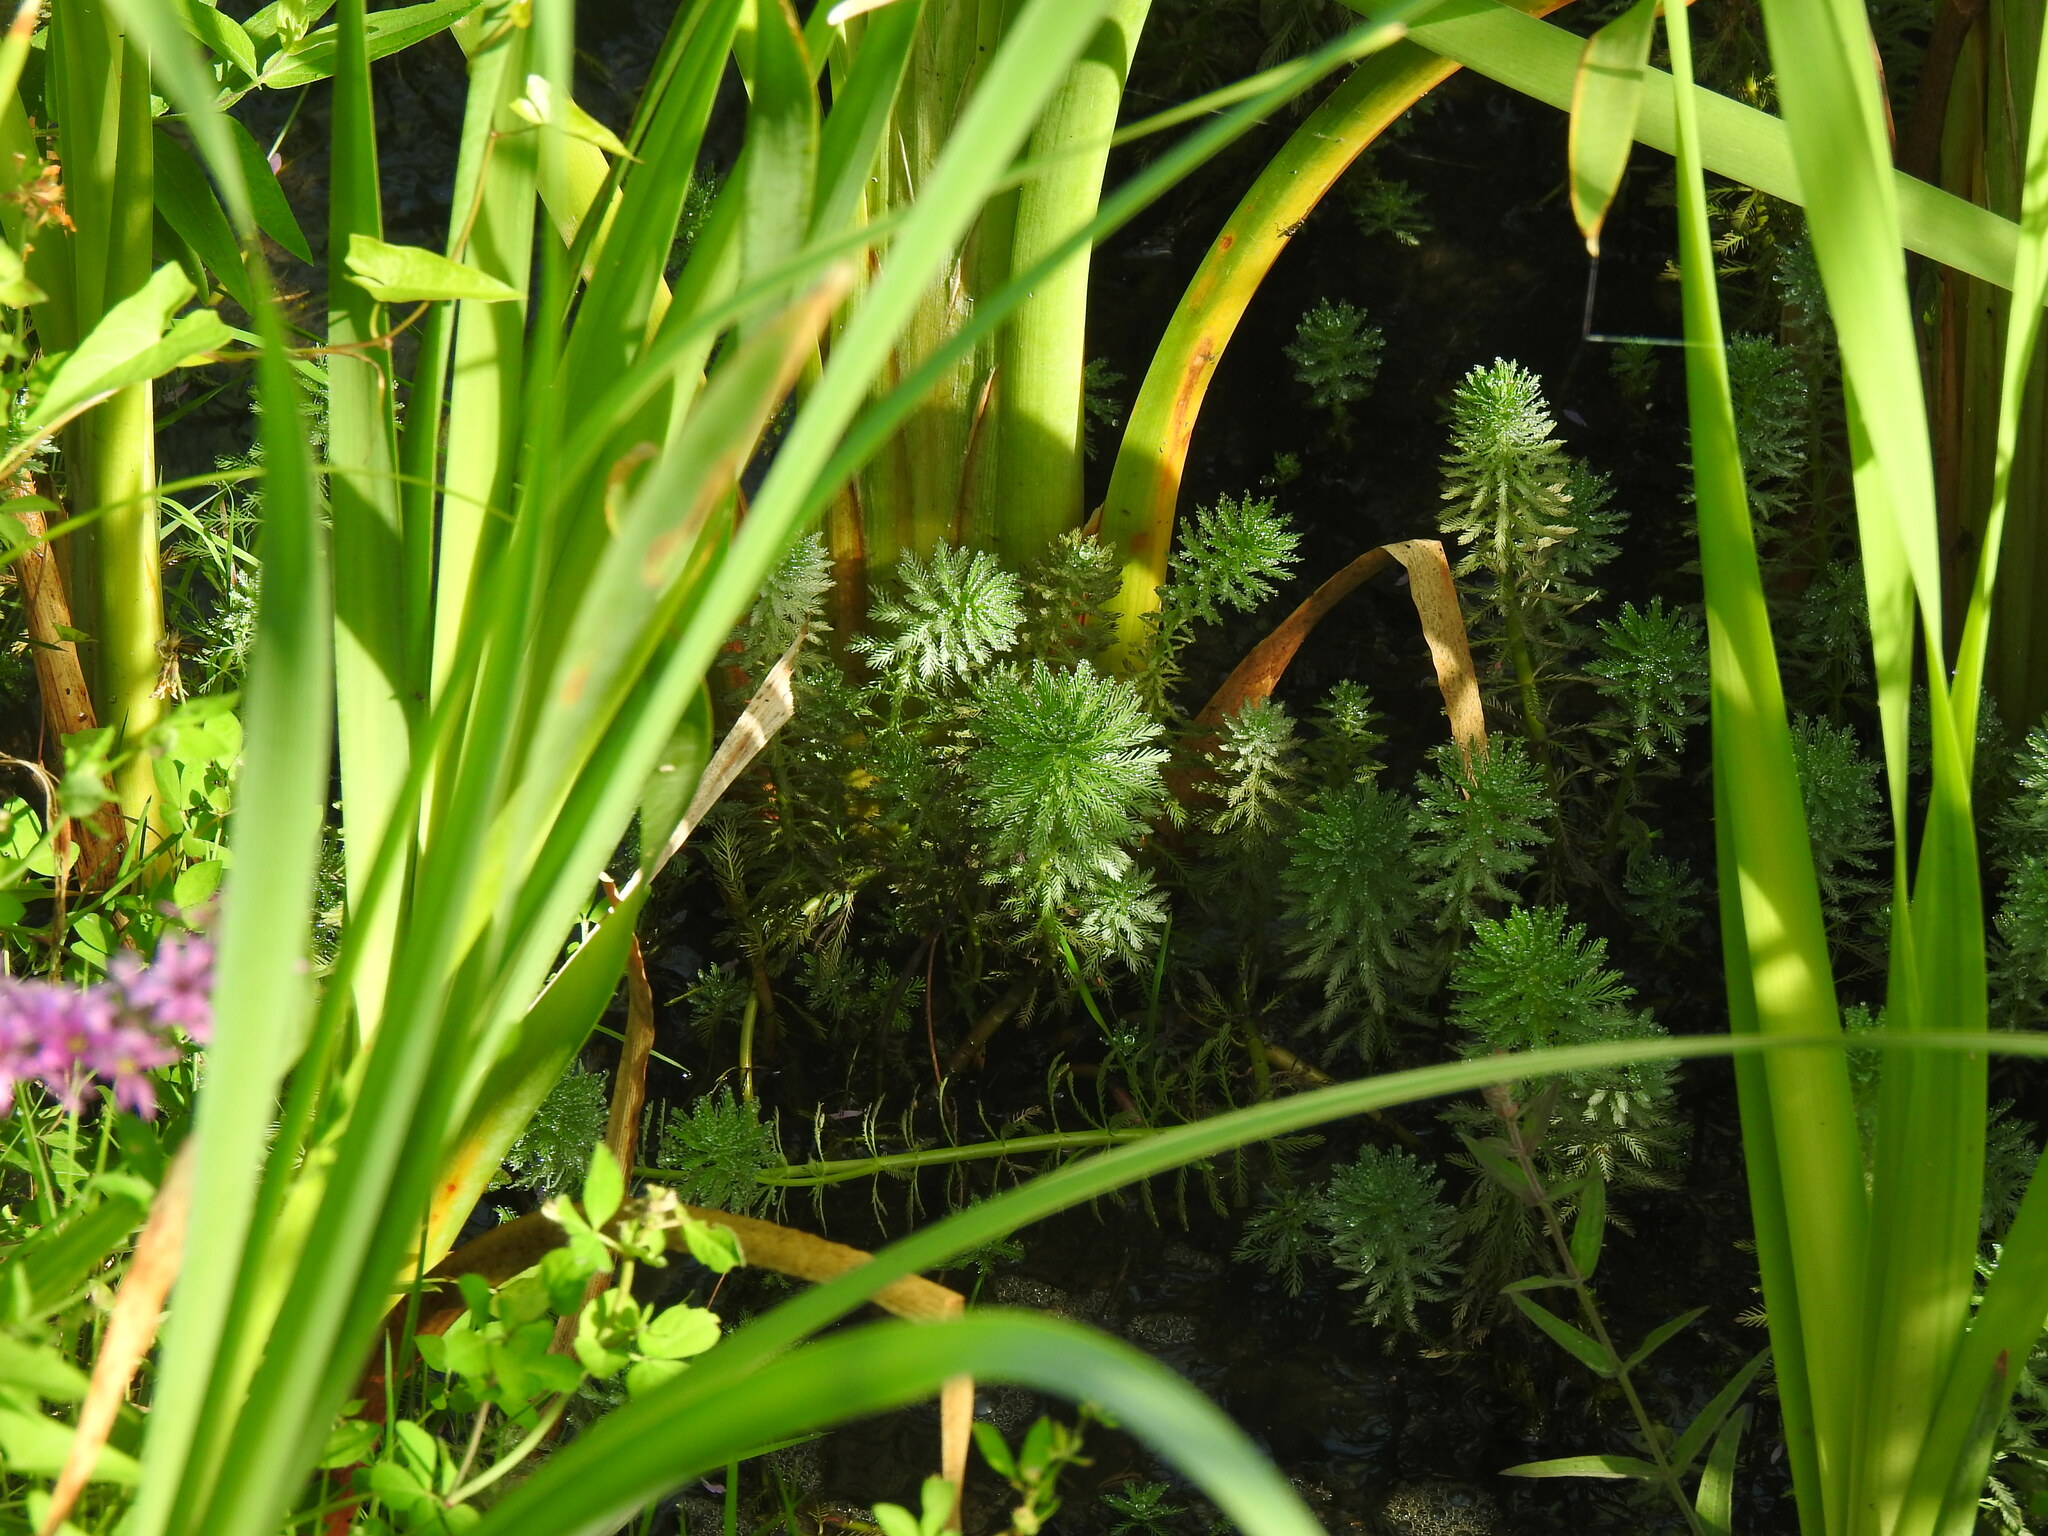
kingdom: Plantae
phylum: Tracheophyta
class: Magnoliopsida
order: Saxifragales
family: Haloragaceae
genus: Myriophyllum
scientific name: Myriophyllum aquaticum
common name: Parrot's feather
